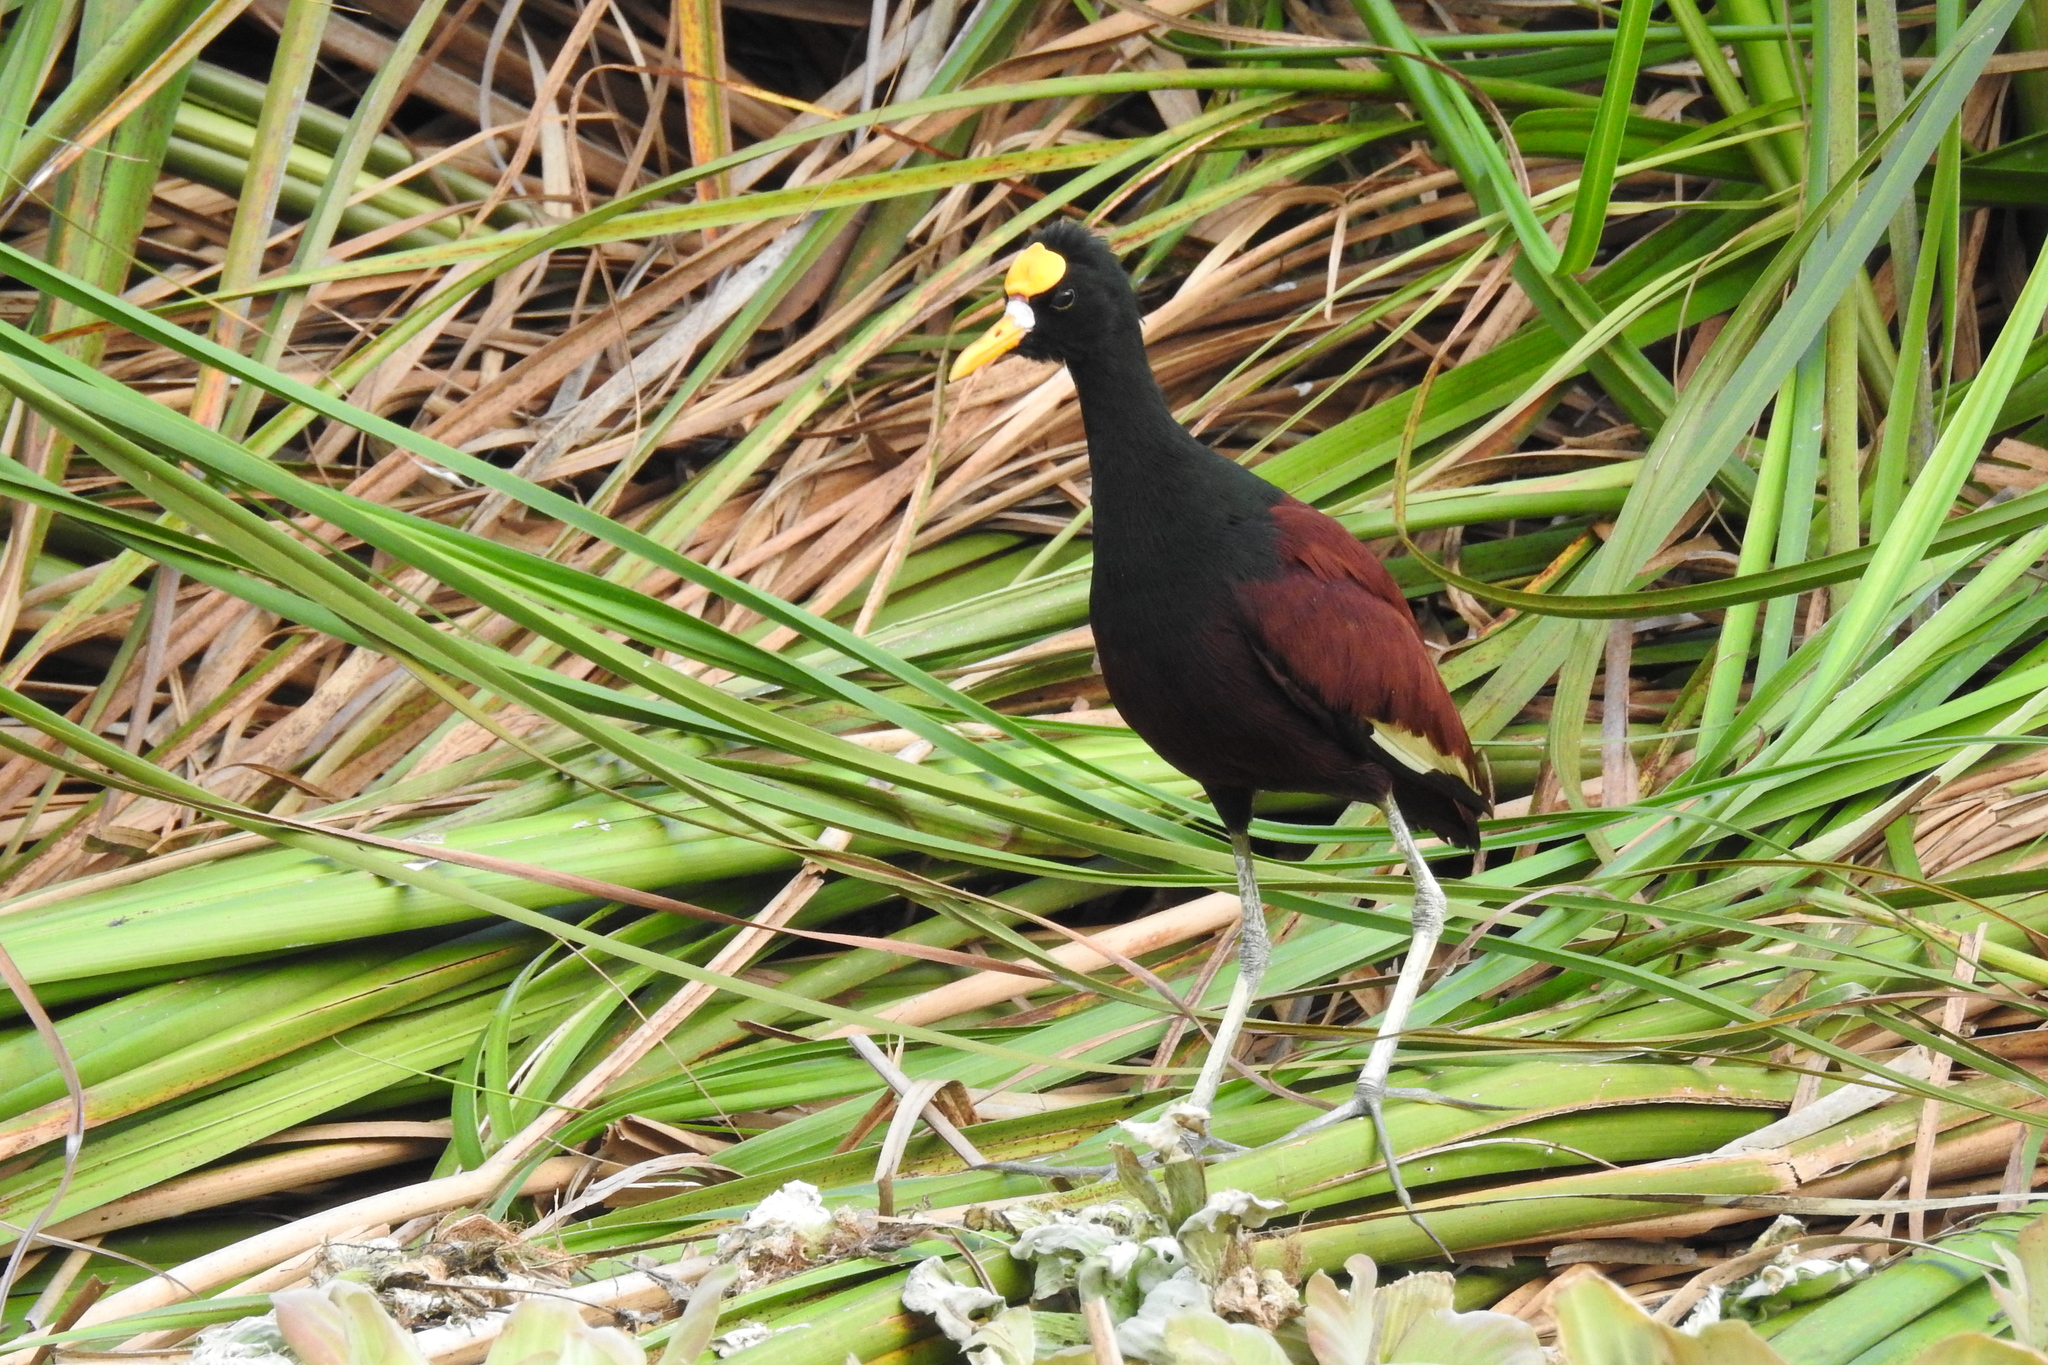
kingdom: Animalia
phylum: Chordata
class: Aves
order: Charadriiformes
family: Jacanidae
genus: Jacana
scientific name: Jacana spinosa
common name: Northern jacana
